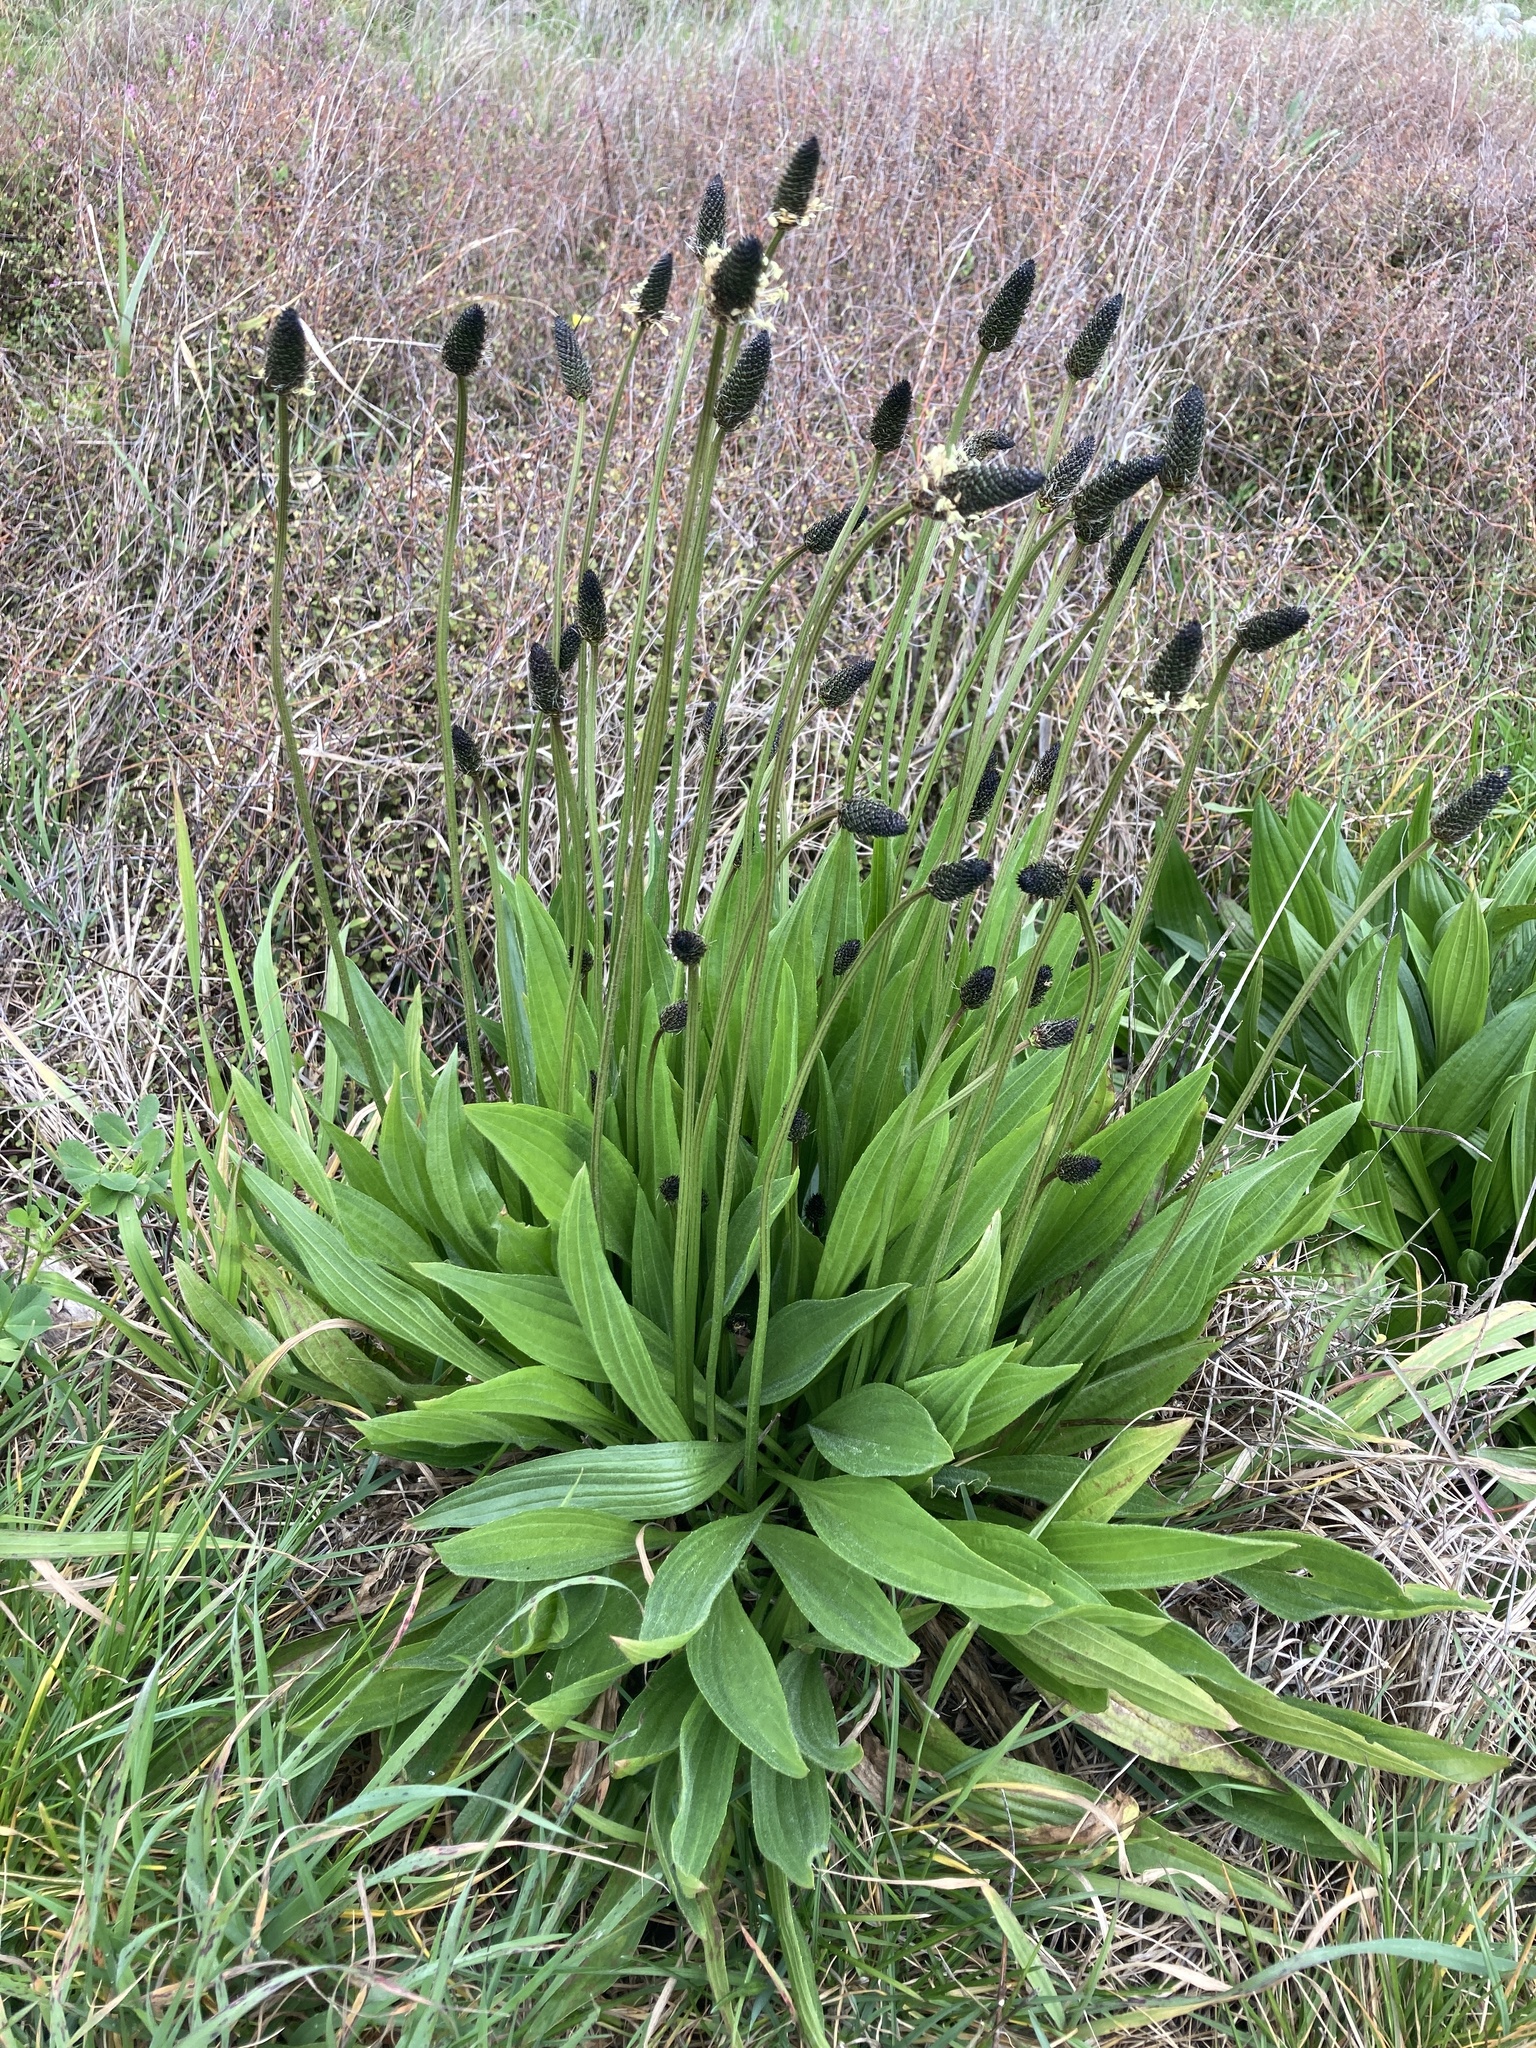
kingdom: Plantae
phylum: Tracheophyta
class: Magnoliopsida
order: Lamiales
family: Plantaginaceae
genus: Plantago
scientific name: Plantago lanceolata
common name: Ribwort plantain
